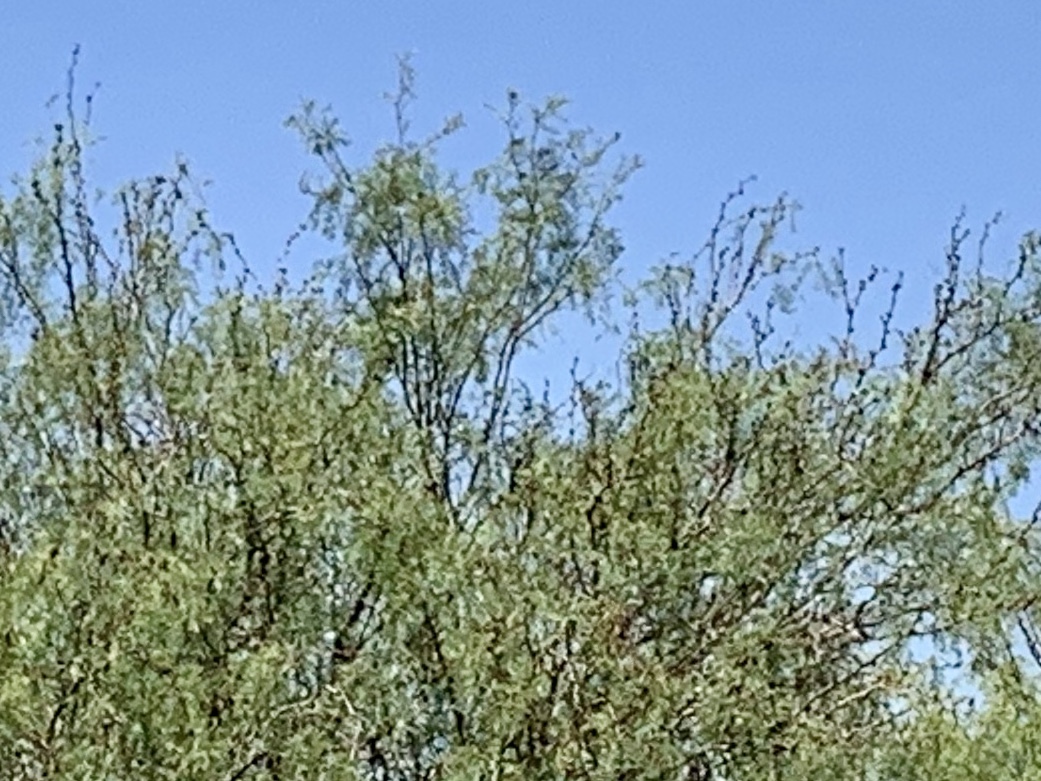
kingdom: Plantae
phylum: Tracheophyta
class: Magnoliopsida
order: Fabales
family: Fabaceae
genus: Prosopis
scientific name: Prosopis glandulosa
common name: Honey mesquite
